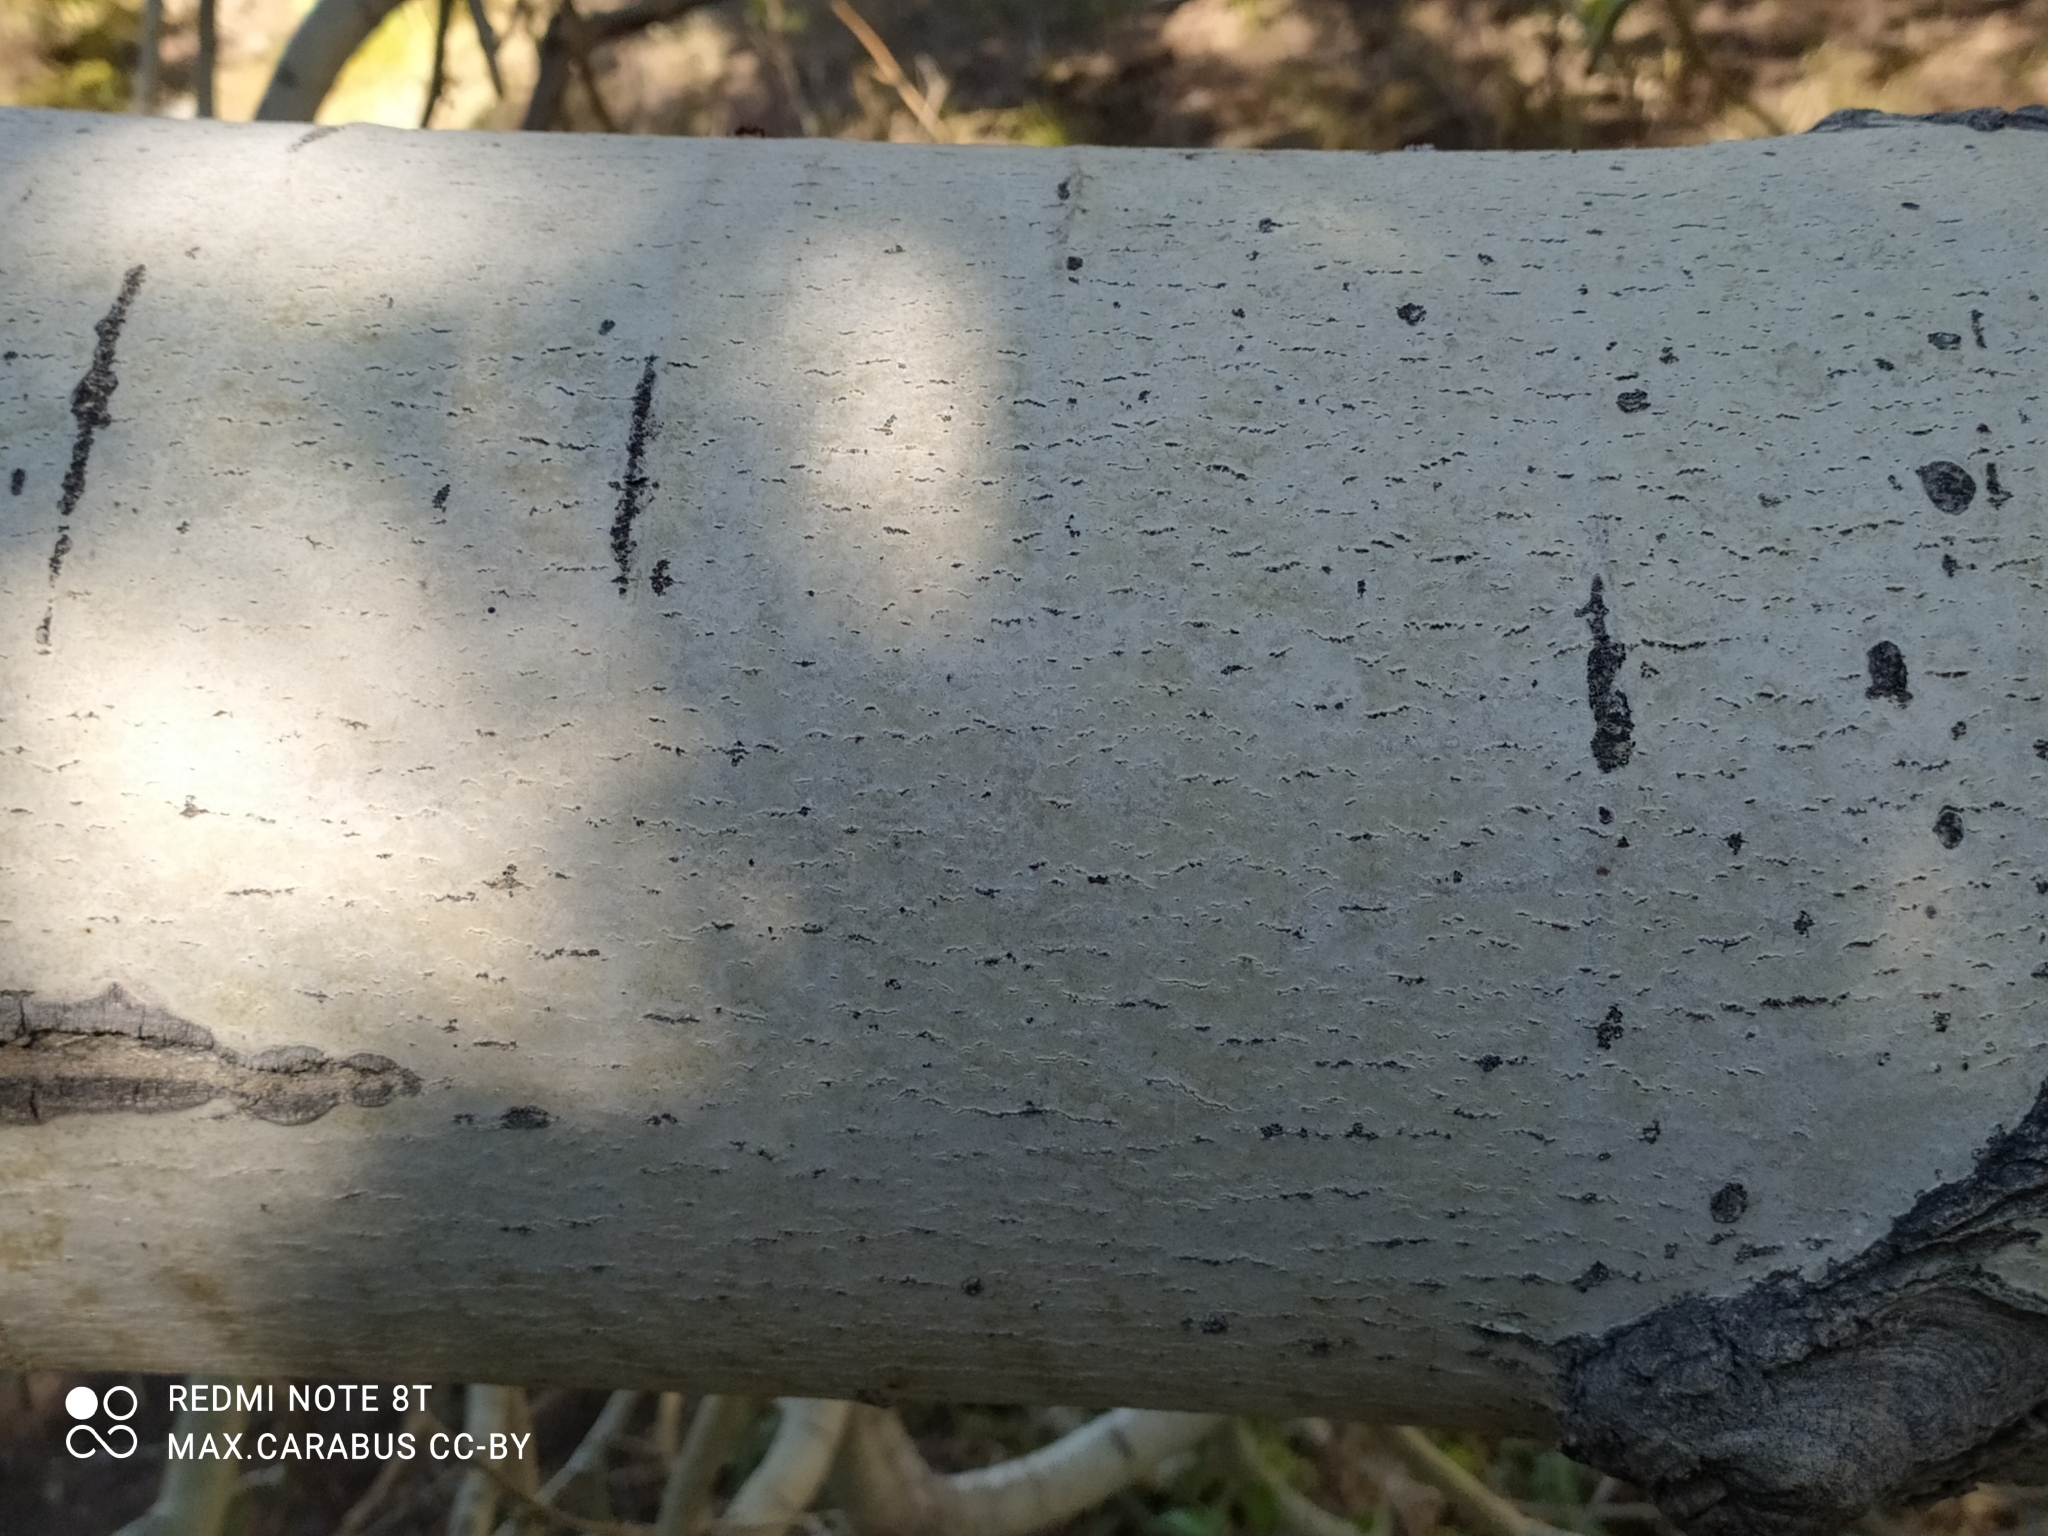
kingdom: Plantae
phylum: Tracheophyta
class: Magnoliopsida
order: Malpighiales
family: Salicaceae
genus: Populus
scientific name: Populus tremula
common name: European aspen
